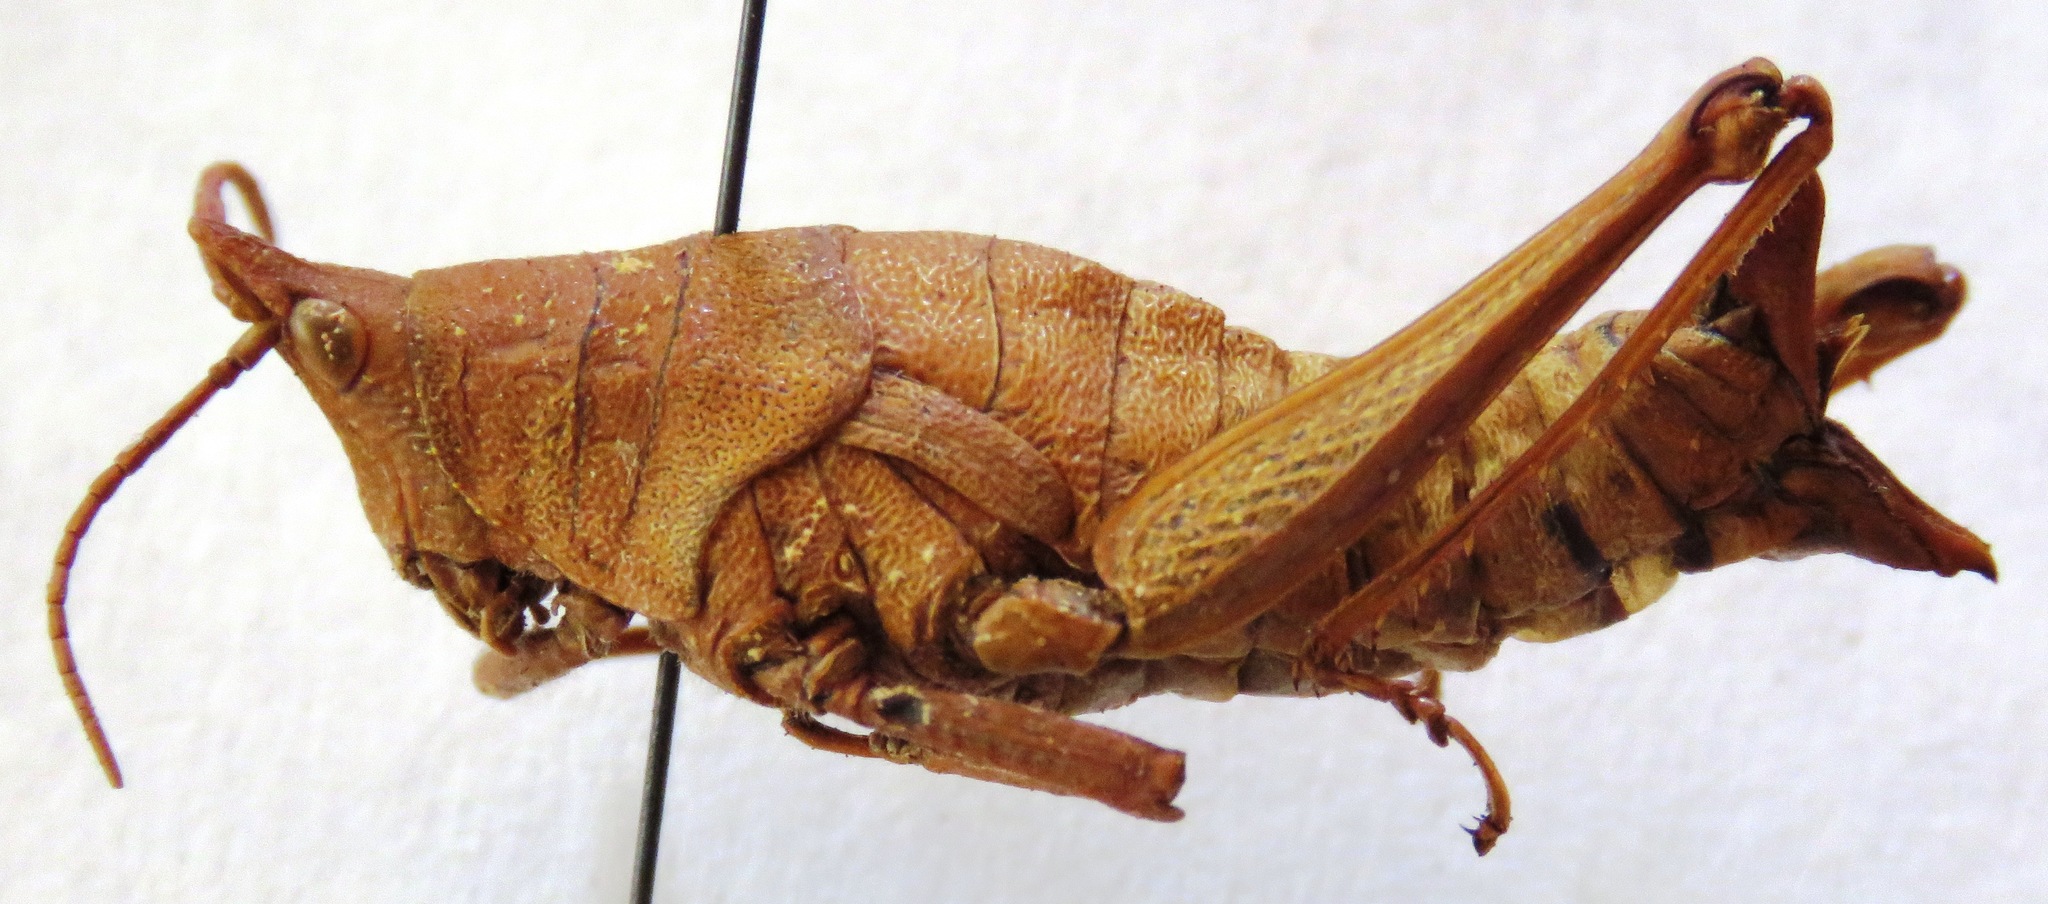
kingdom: Animalia
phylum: Arthropoda
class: Insecta
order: Orthoptera
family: Pyrgomorphidae
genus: Prosphena
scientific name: Prosphena scudderi
